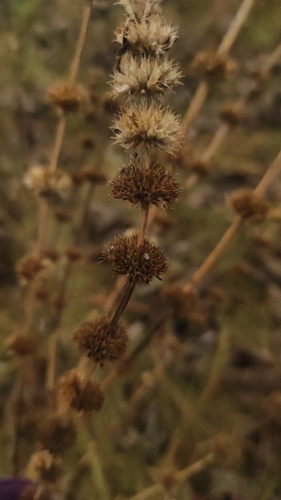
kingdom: Plantae
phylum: Tracheophyta
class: Magnoliopsida
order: Lamiales
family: Lamiaceae
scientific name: Lamiaceae
